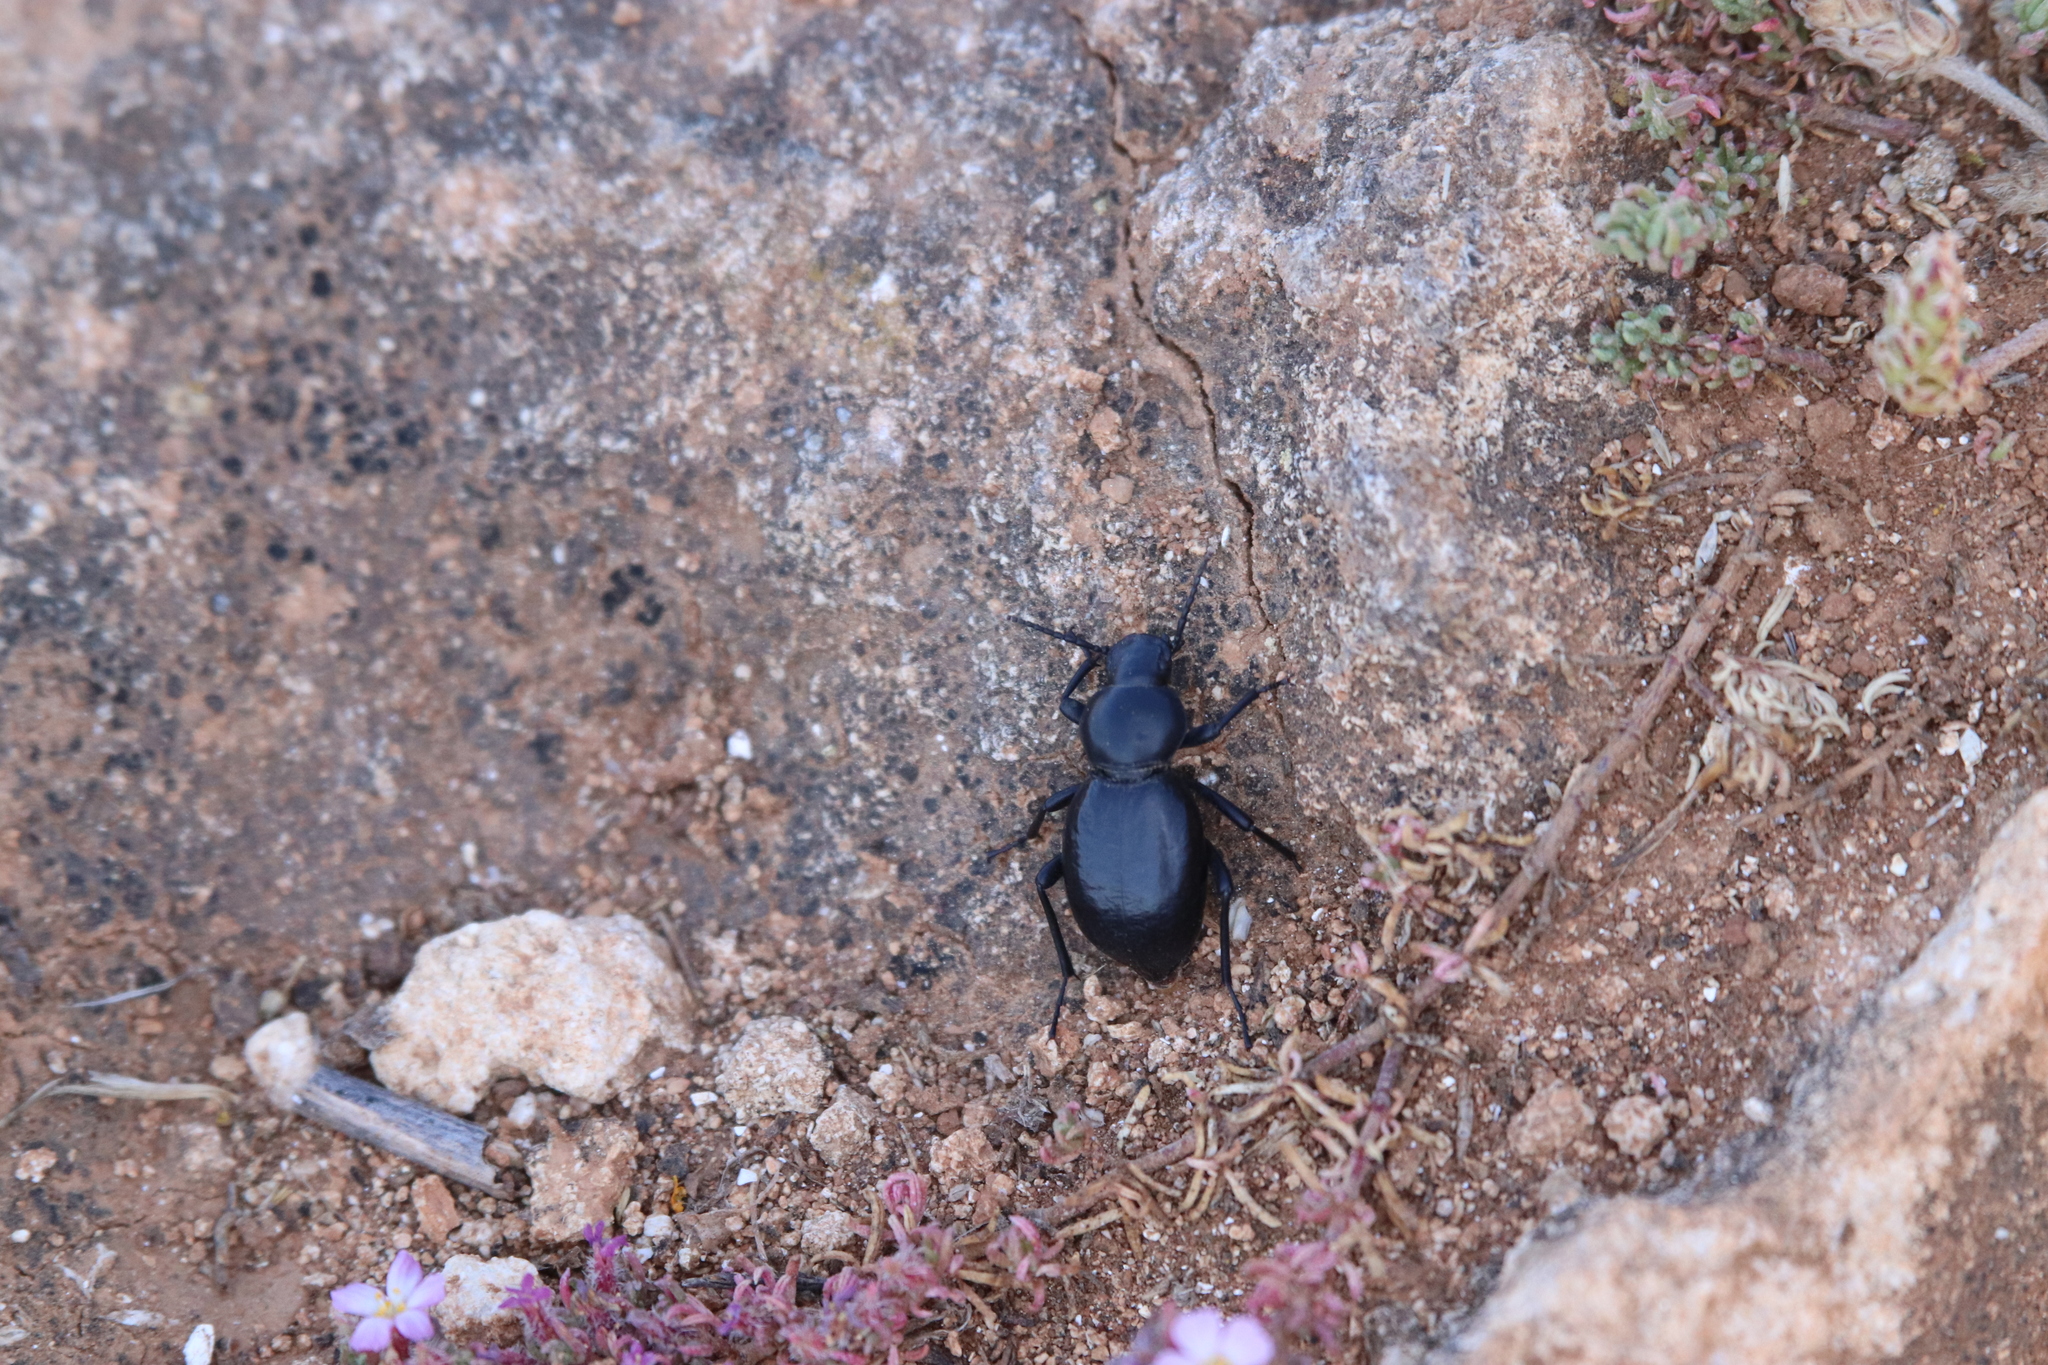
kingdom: Animalia
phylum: Arthropoda
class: Insecta
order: Coleoptera
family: Tenebrionidae
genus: Tentyria
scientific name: Tentyria grossa
